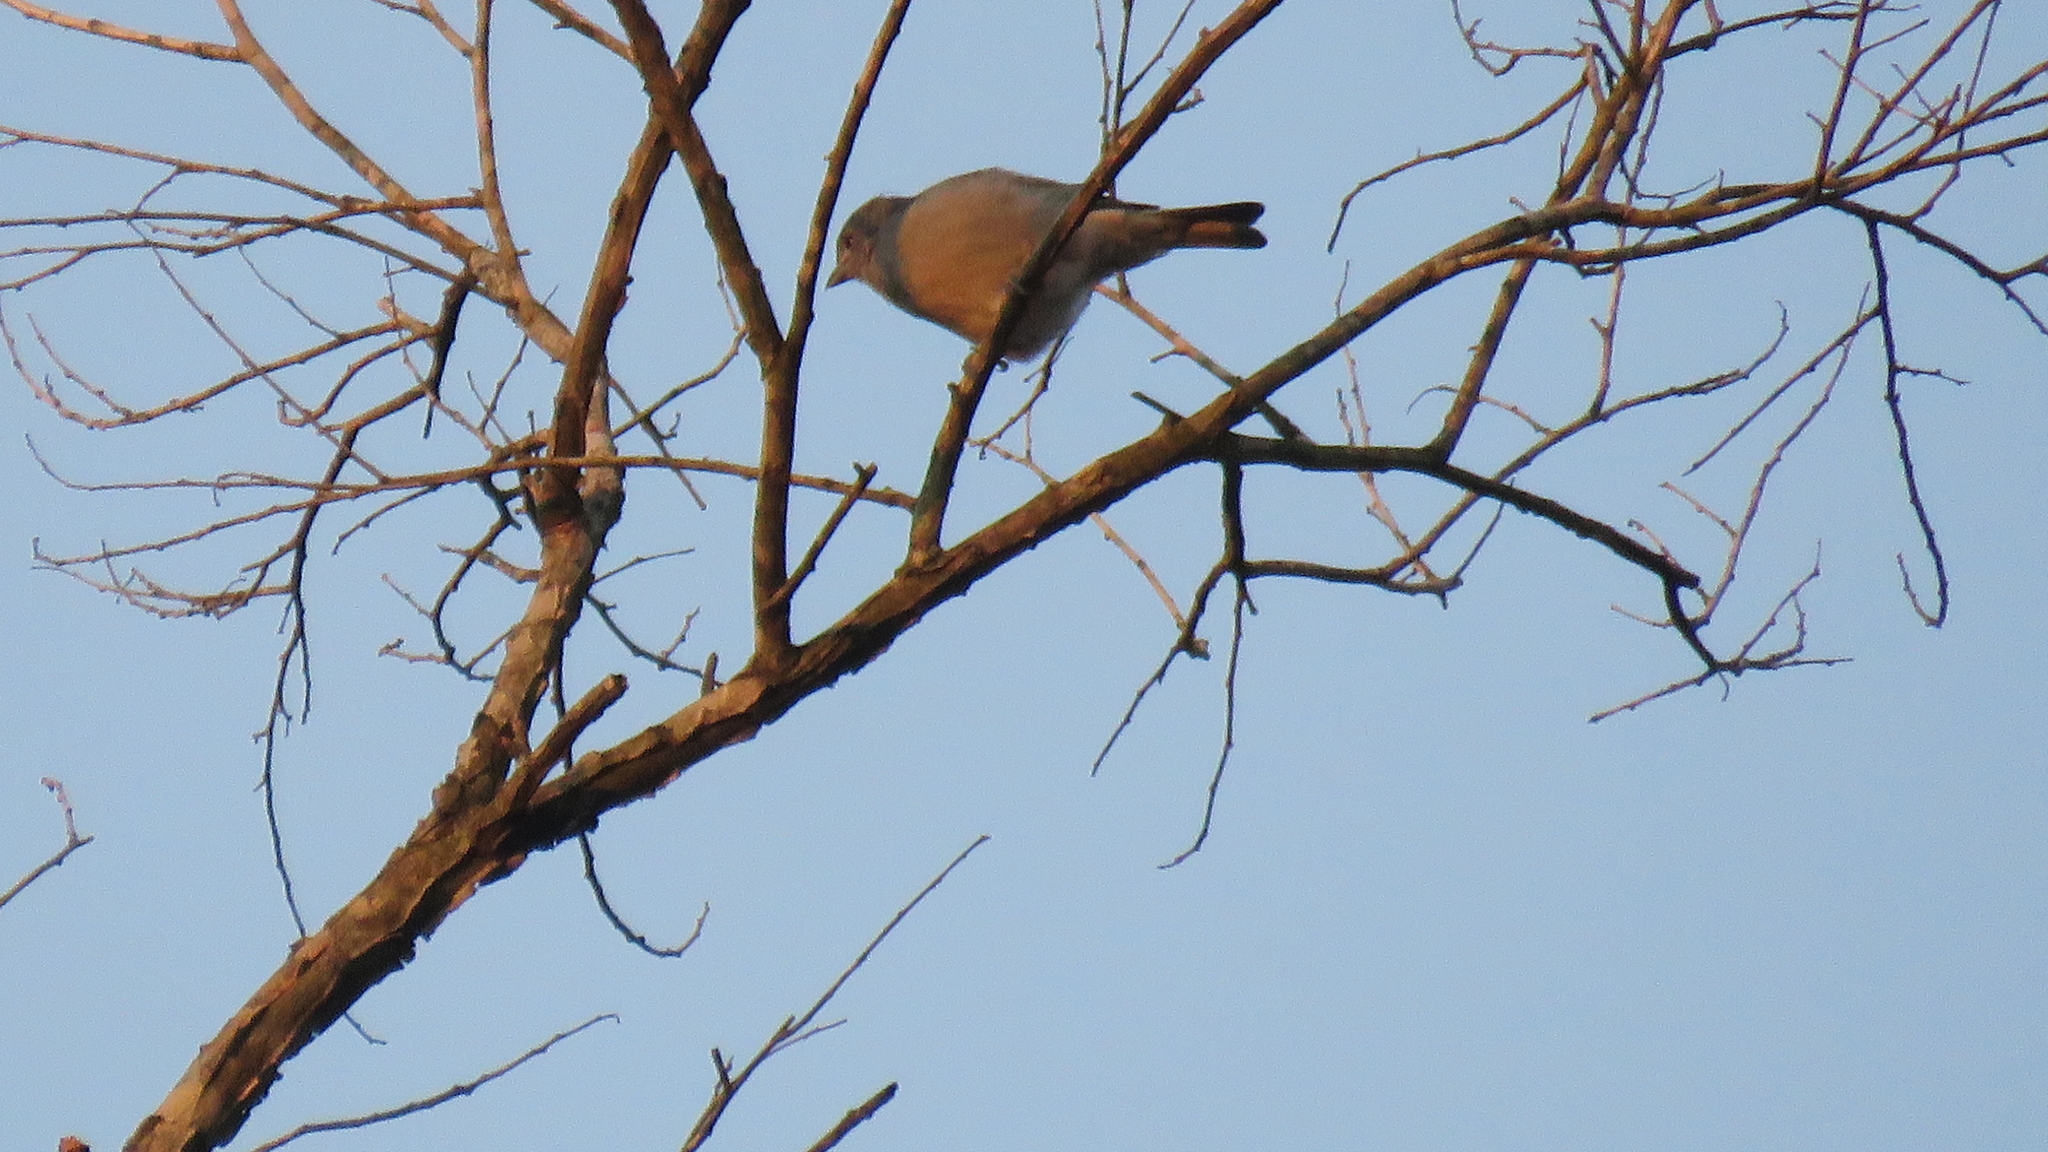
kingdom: Animalia
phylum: Chordata
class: Aves
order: Passeriformes
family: Thraupidae
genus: Thraupis
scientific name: Thraupis sayaca
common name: Sayaca tanager
